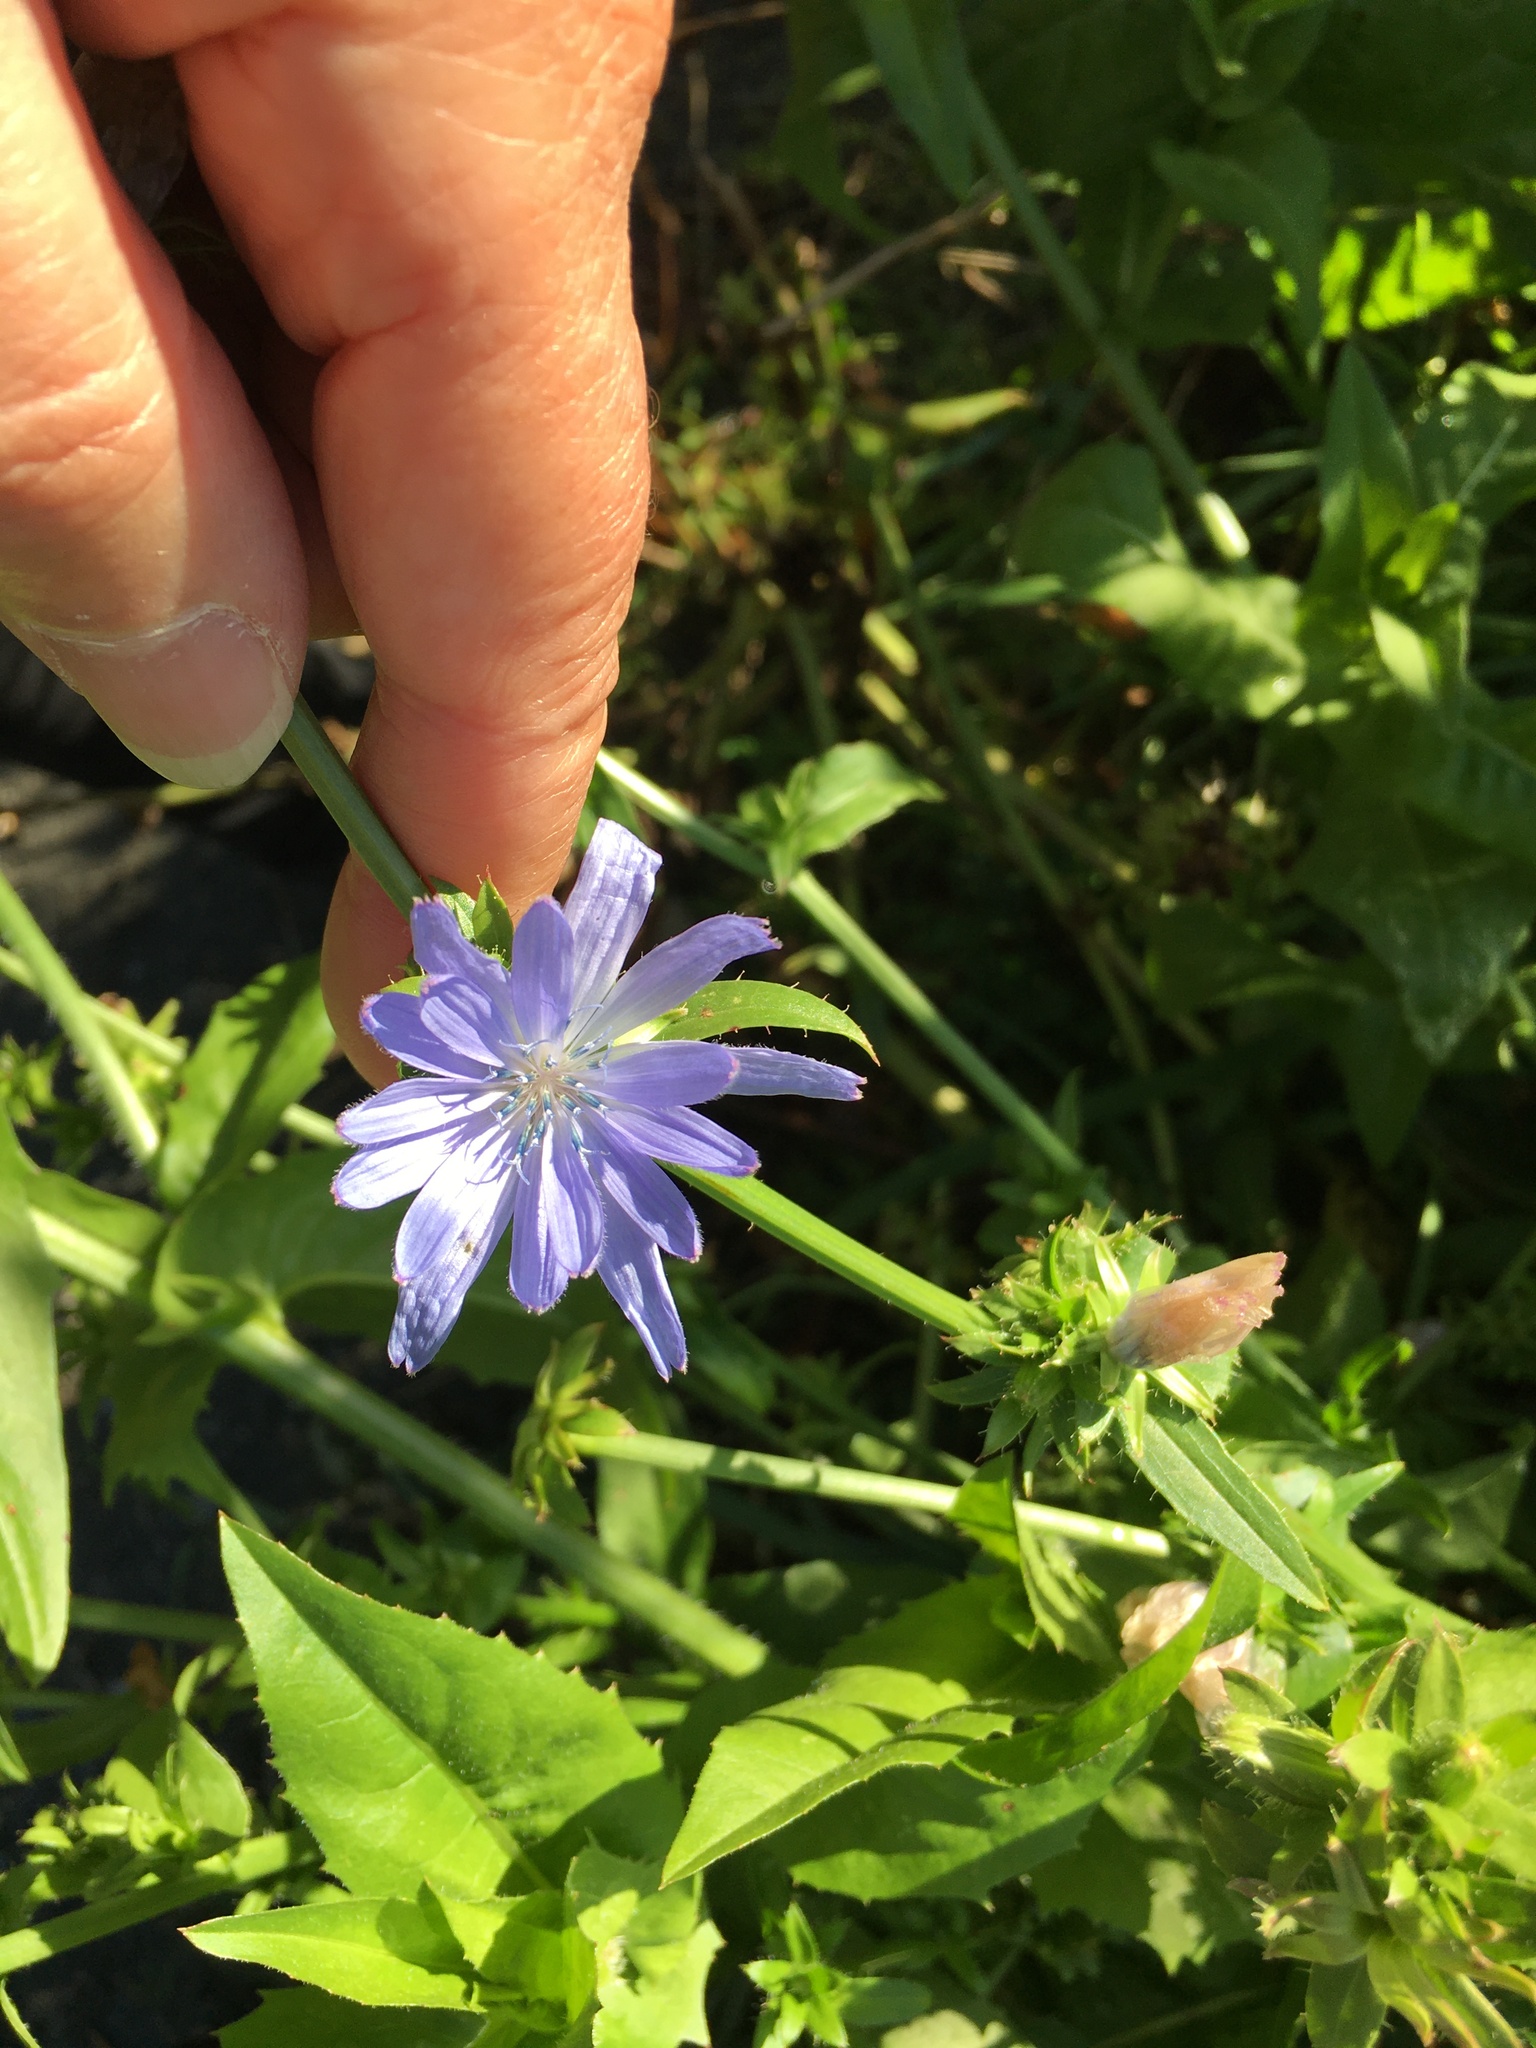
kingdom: Plantae
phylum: Tracheophyta
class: Magnoliopsida
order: Asterales
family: Asteraceae
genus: Cichorium
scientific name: Cichorium intybus
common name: Chicory
